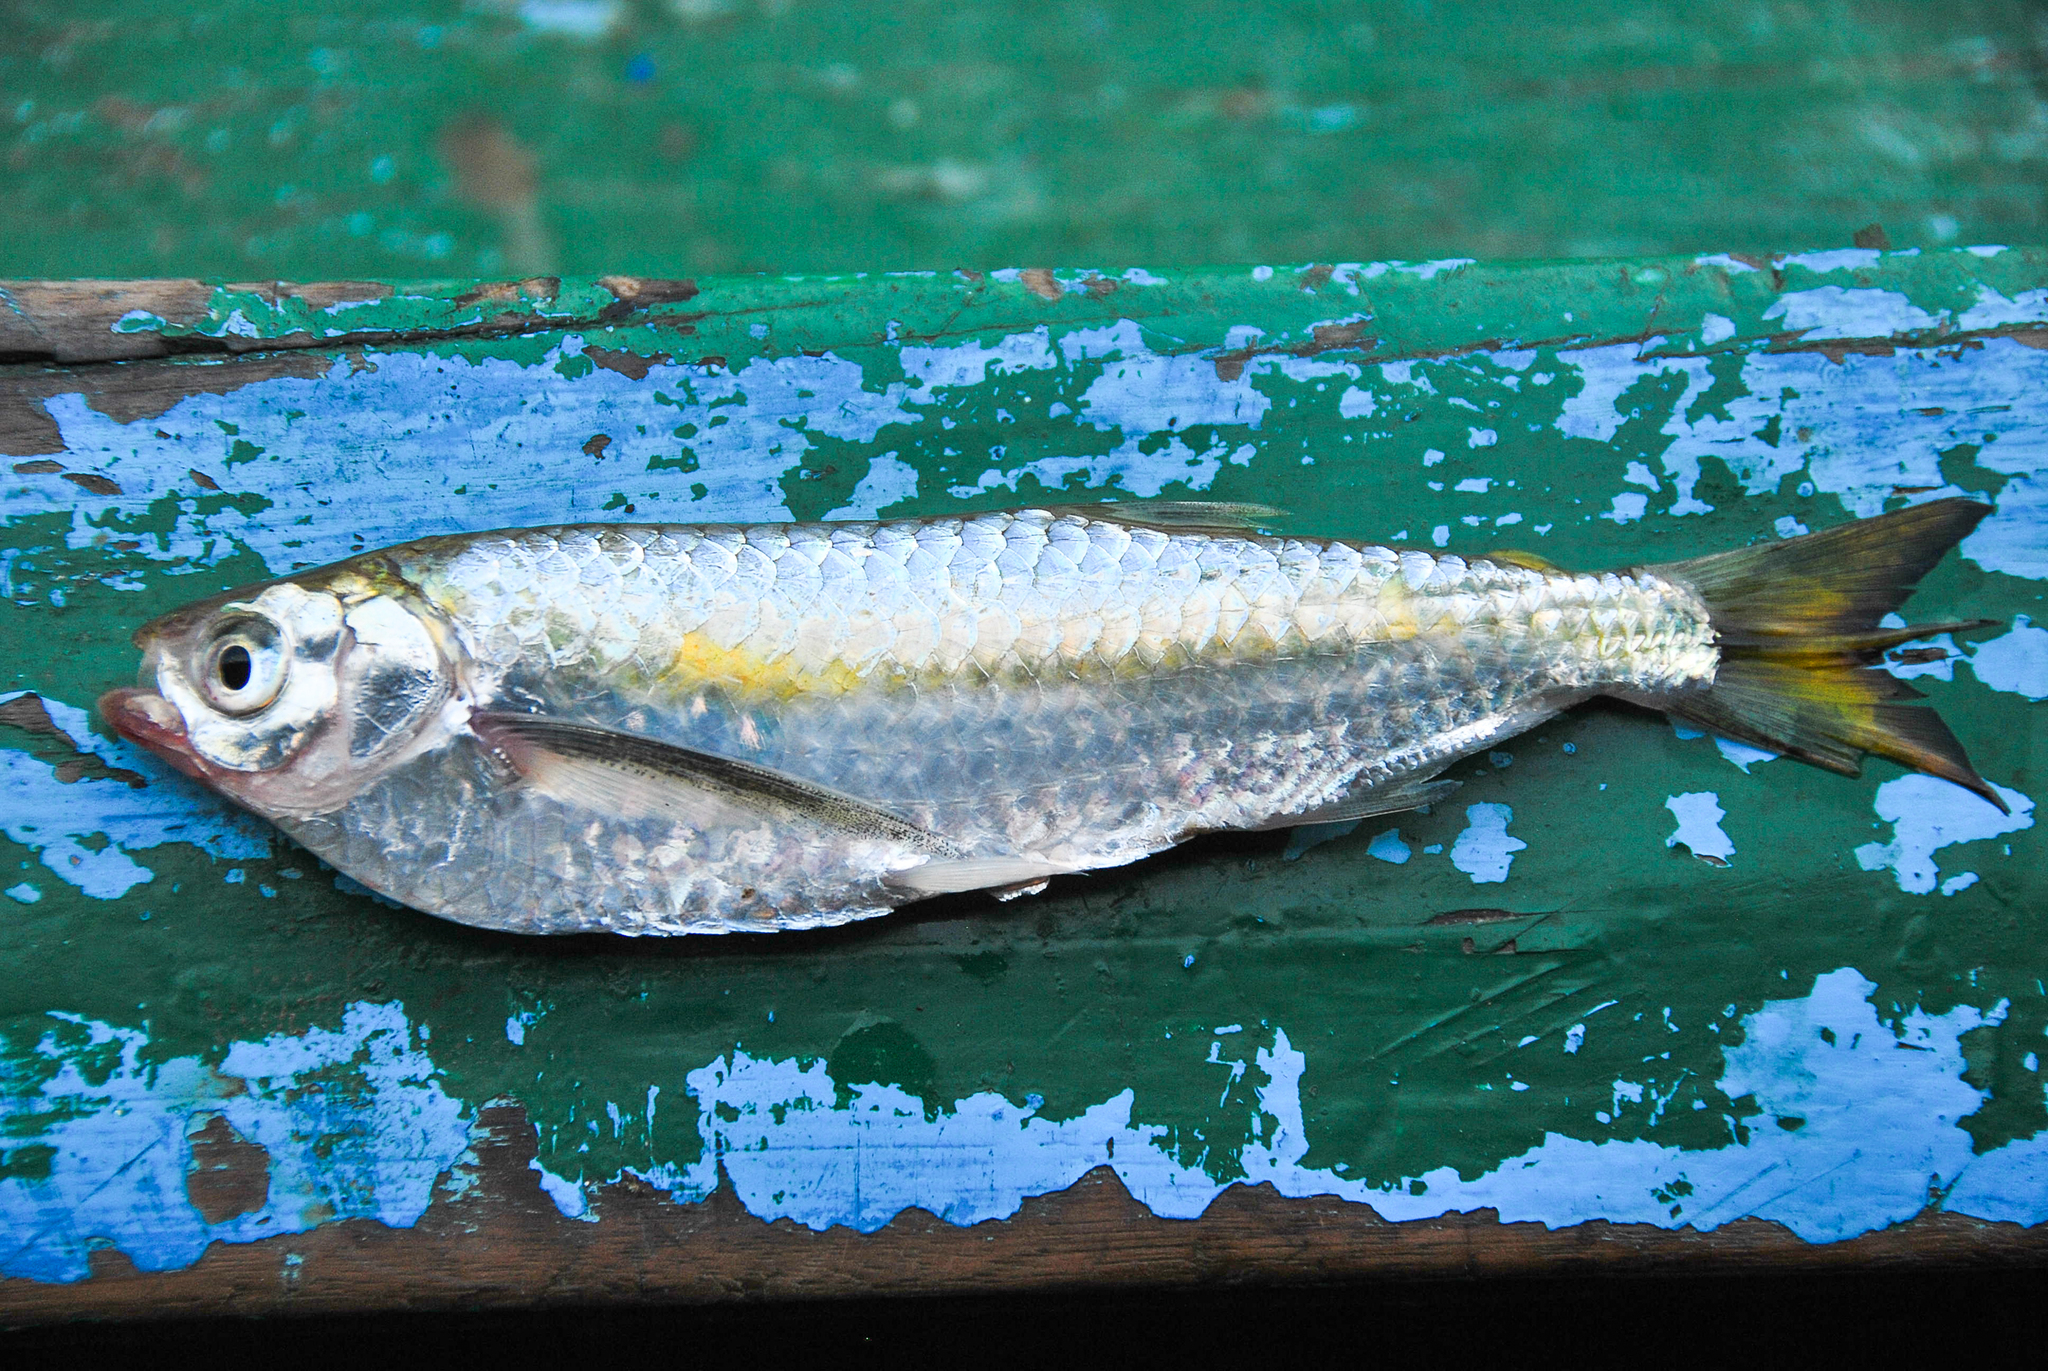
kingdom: Animalia
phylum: Chordata
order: Characiformes
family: Triportheidae
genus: Triportheus
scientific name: Triportheus auritus
